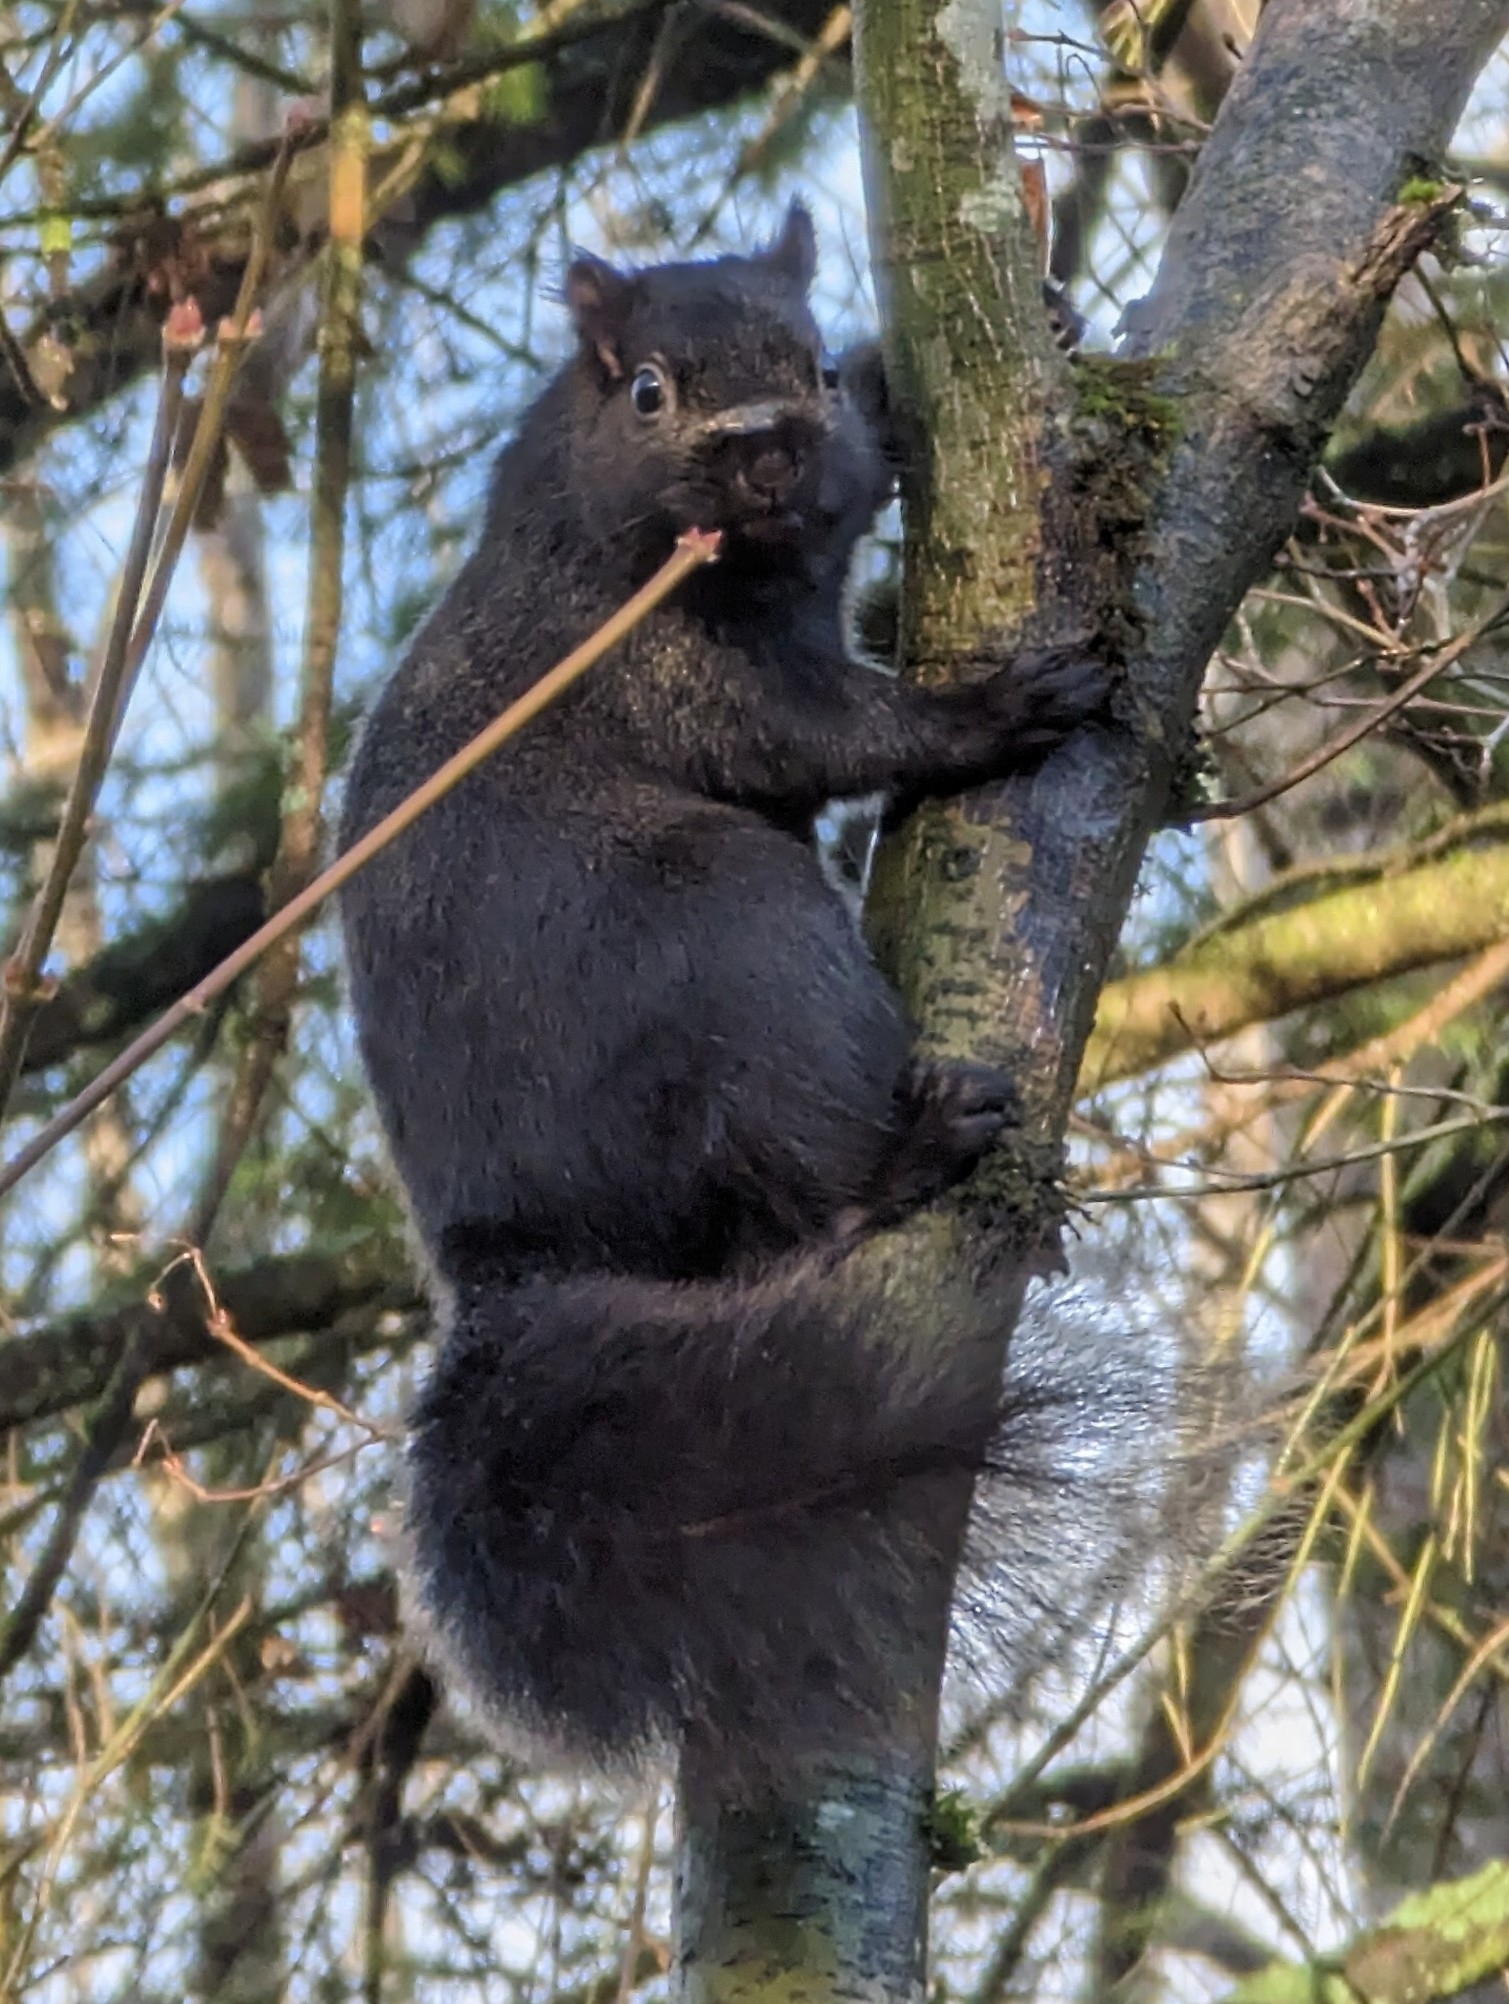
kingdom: Animalia
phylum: Chordata
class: Mammalia
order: Rodentia
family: Sciuridae
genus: Sciurus
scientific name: Sciurus carolinensis
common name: Eastern gray squirrel
